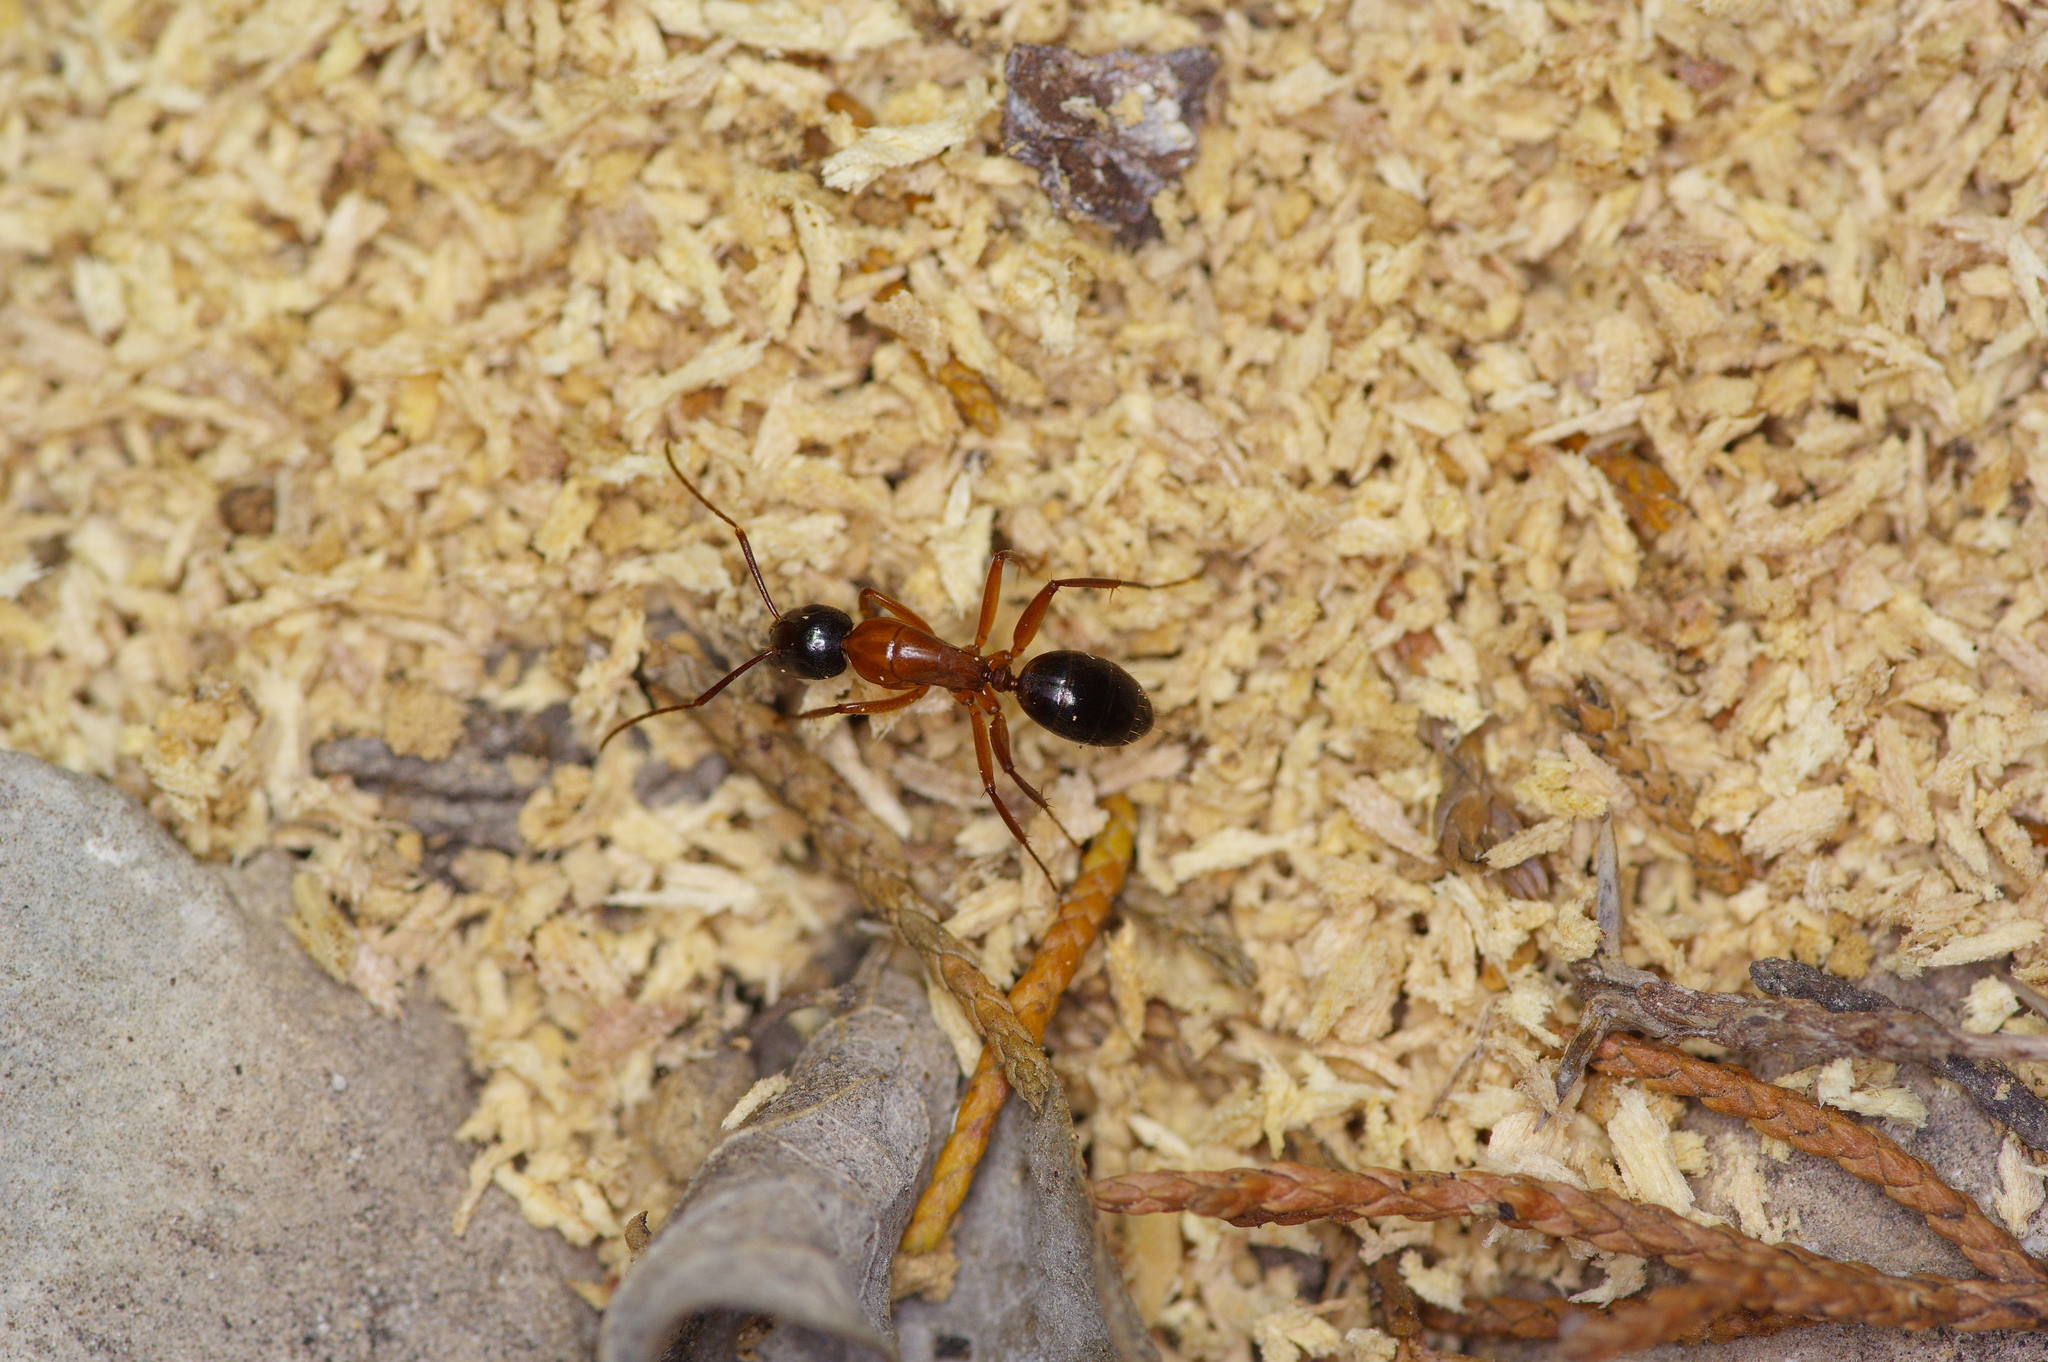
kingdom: Animalia
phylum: Arthropoda
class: Insecta
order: Hymenoptera
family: Formicidae
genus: Camponotus
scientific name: Camponotus texanus
